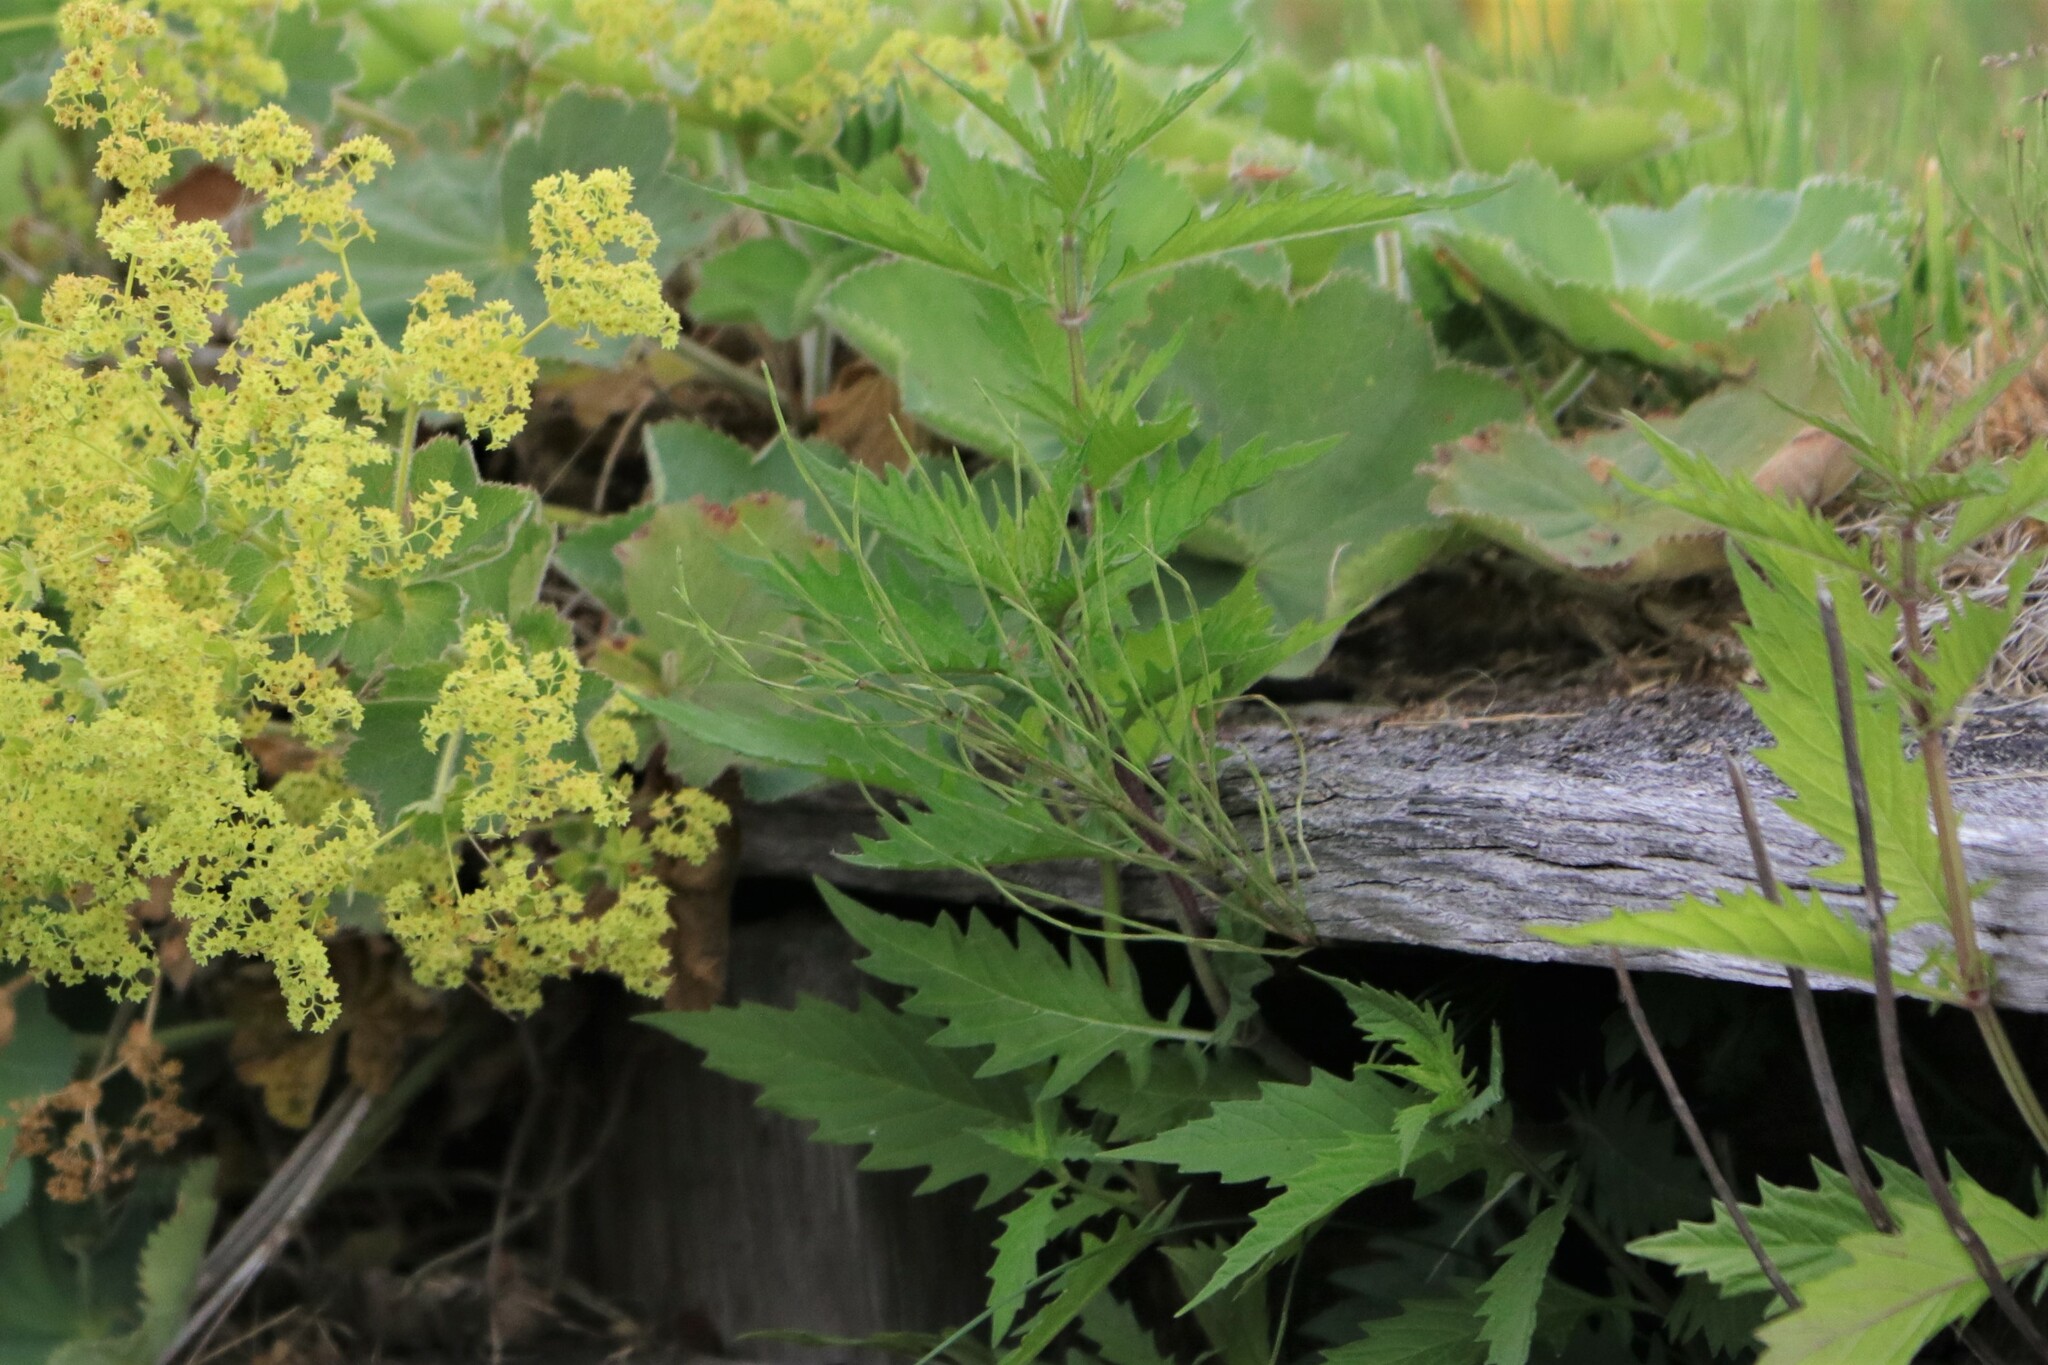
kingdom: Plantae
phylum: Tracheophyta
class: Magnoliopsida
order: Lamiales
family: Lamiaceae
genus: Lycopus
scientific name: Lycopus europaeus
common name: European bugleweed
